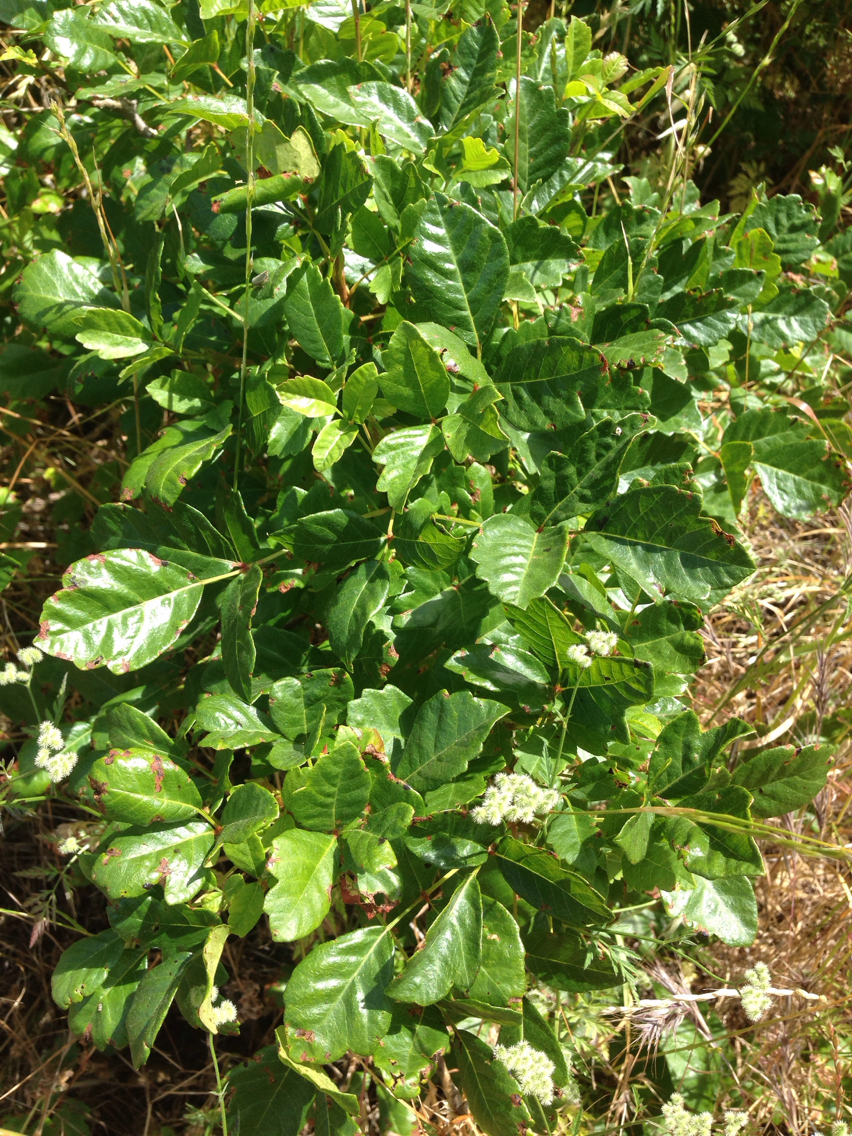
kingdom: Plantae
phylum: Tracheophyta
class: Magnoliopsida
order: Sapindales
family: Anacardiaceae
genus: Toxicodendron
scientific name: Toxicodendron diversilobum
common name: Pacific poison-oak
